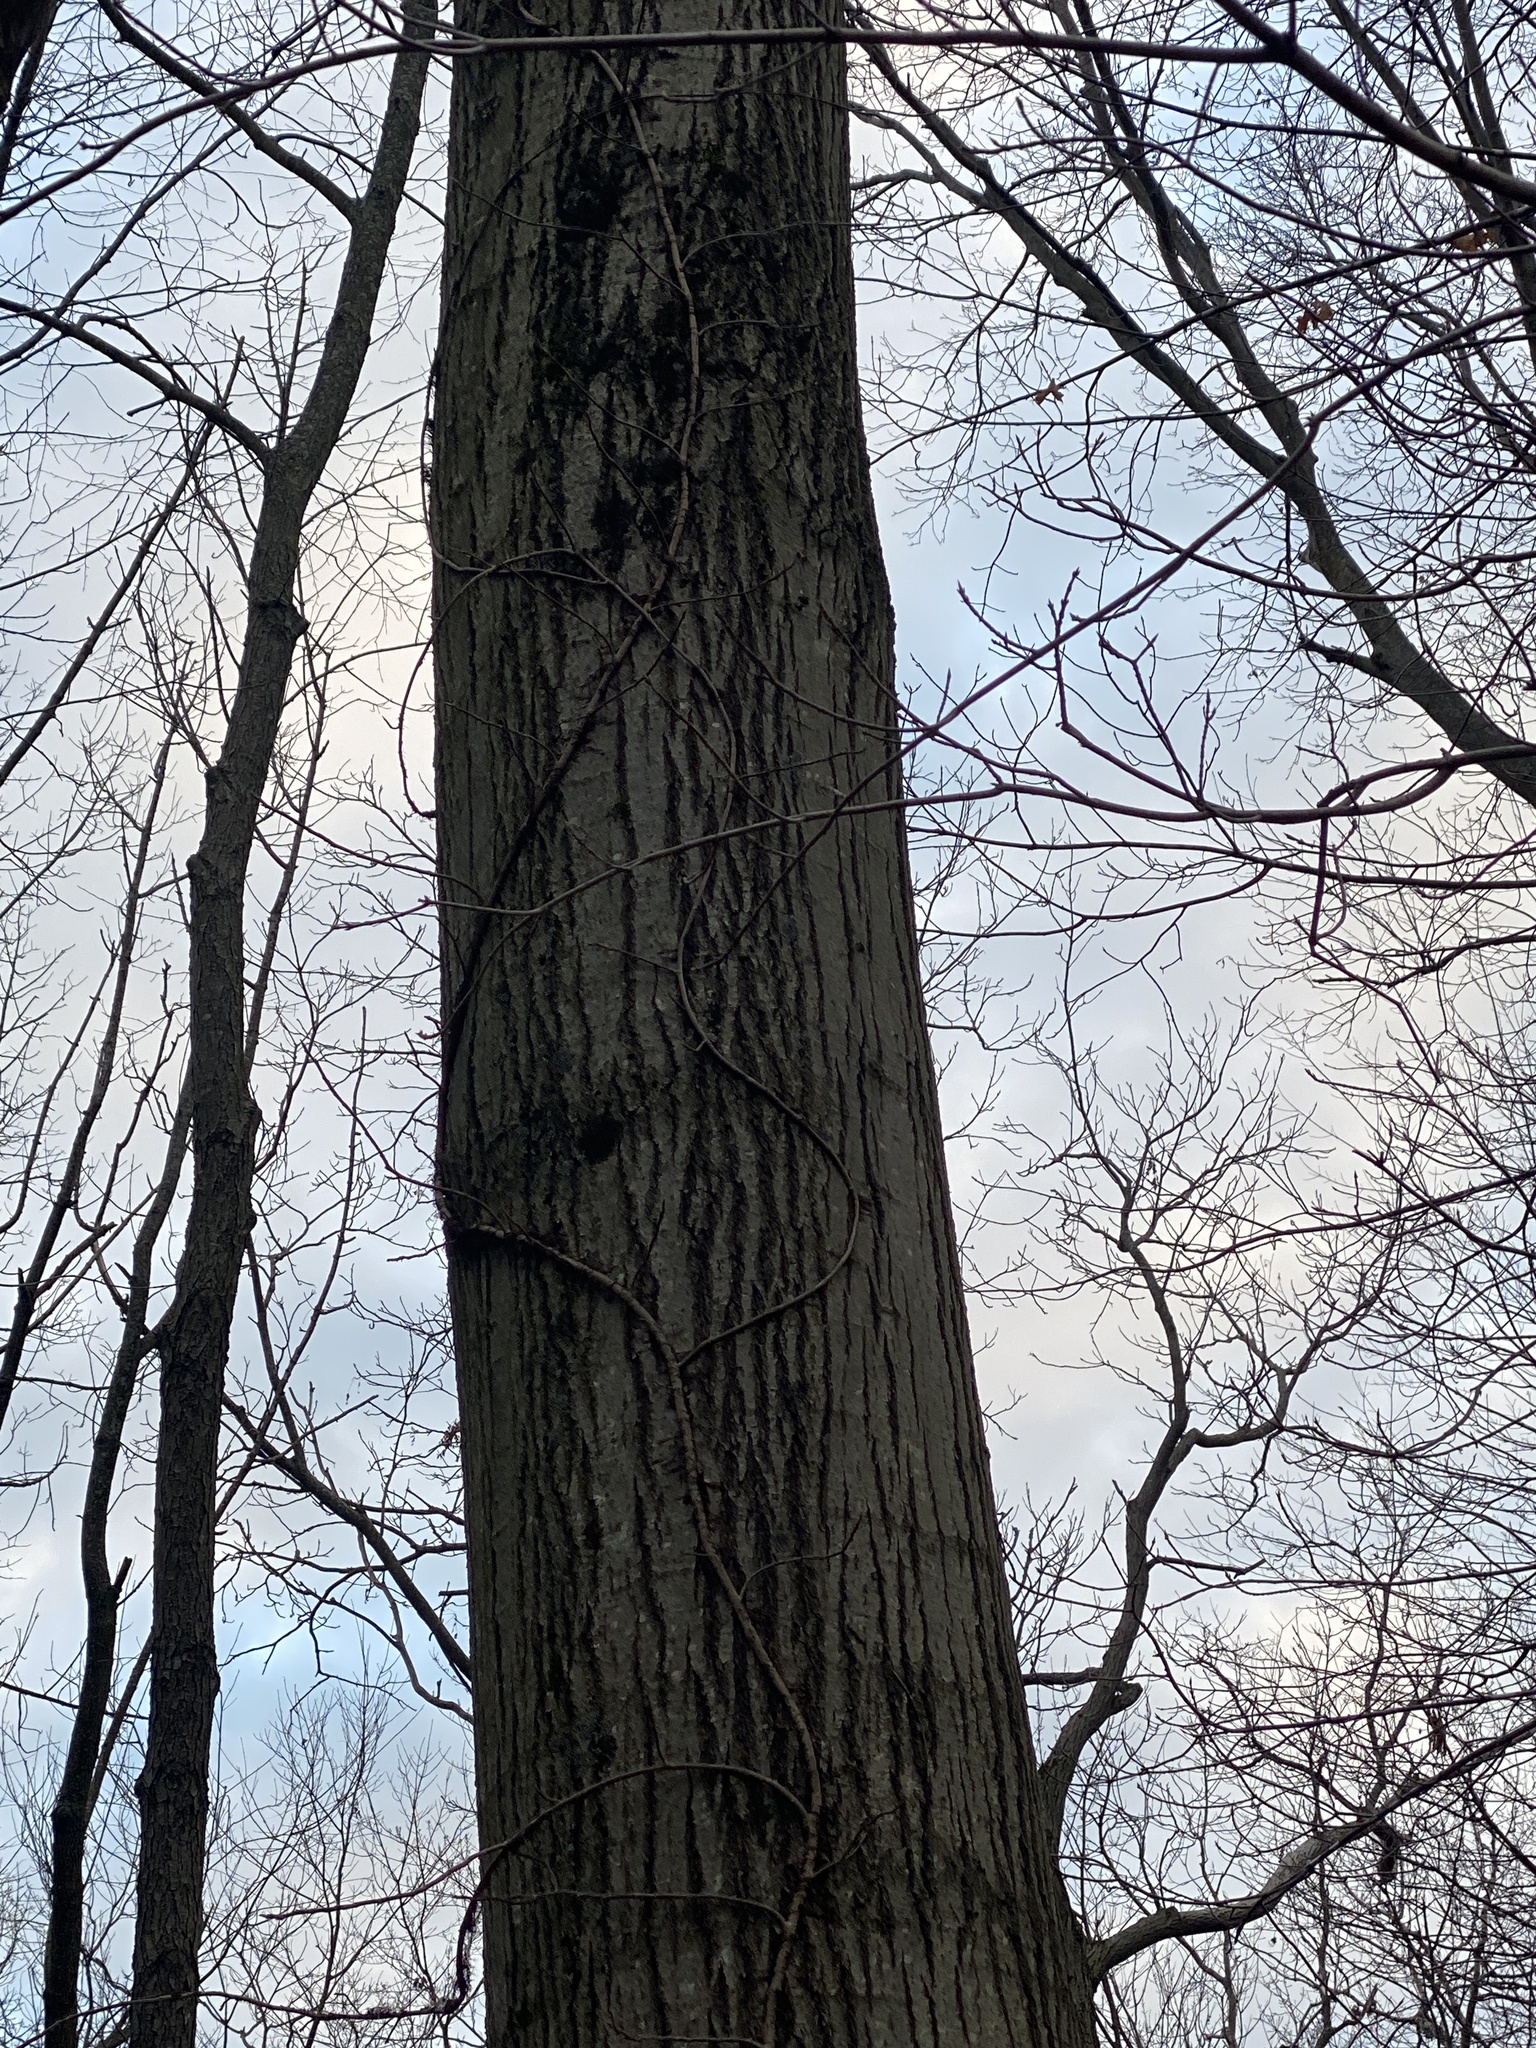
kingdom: Plantae
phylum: Tracheophyta
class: Magnoliopsida
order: Fagales
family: Fagaceae
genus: Quercus
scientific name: Quercus rubra
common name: Red oak
